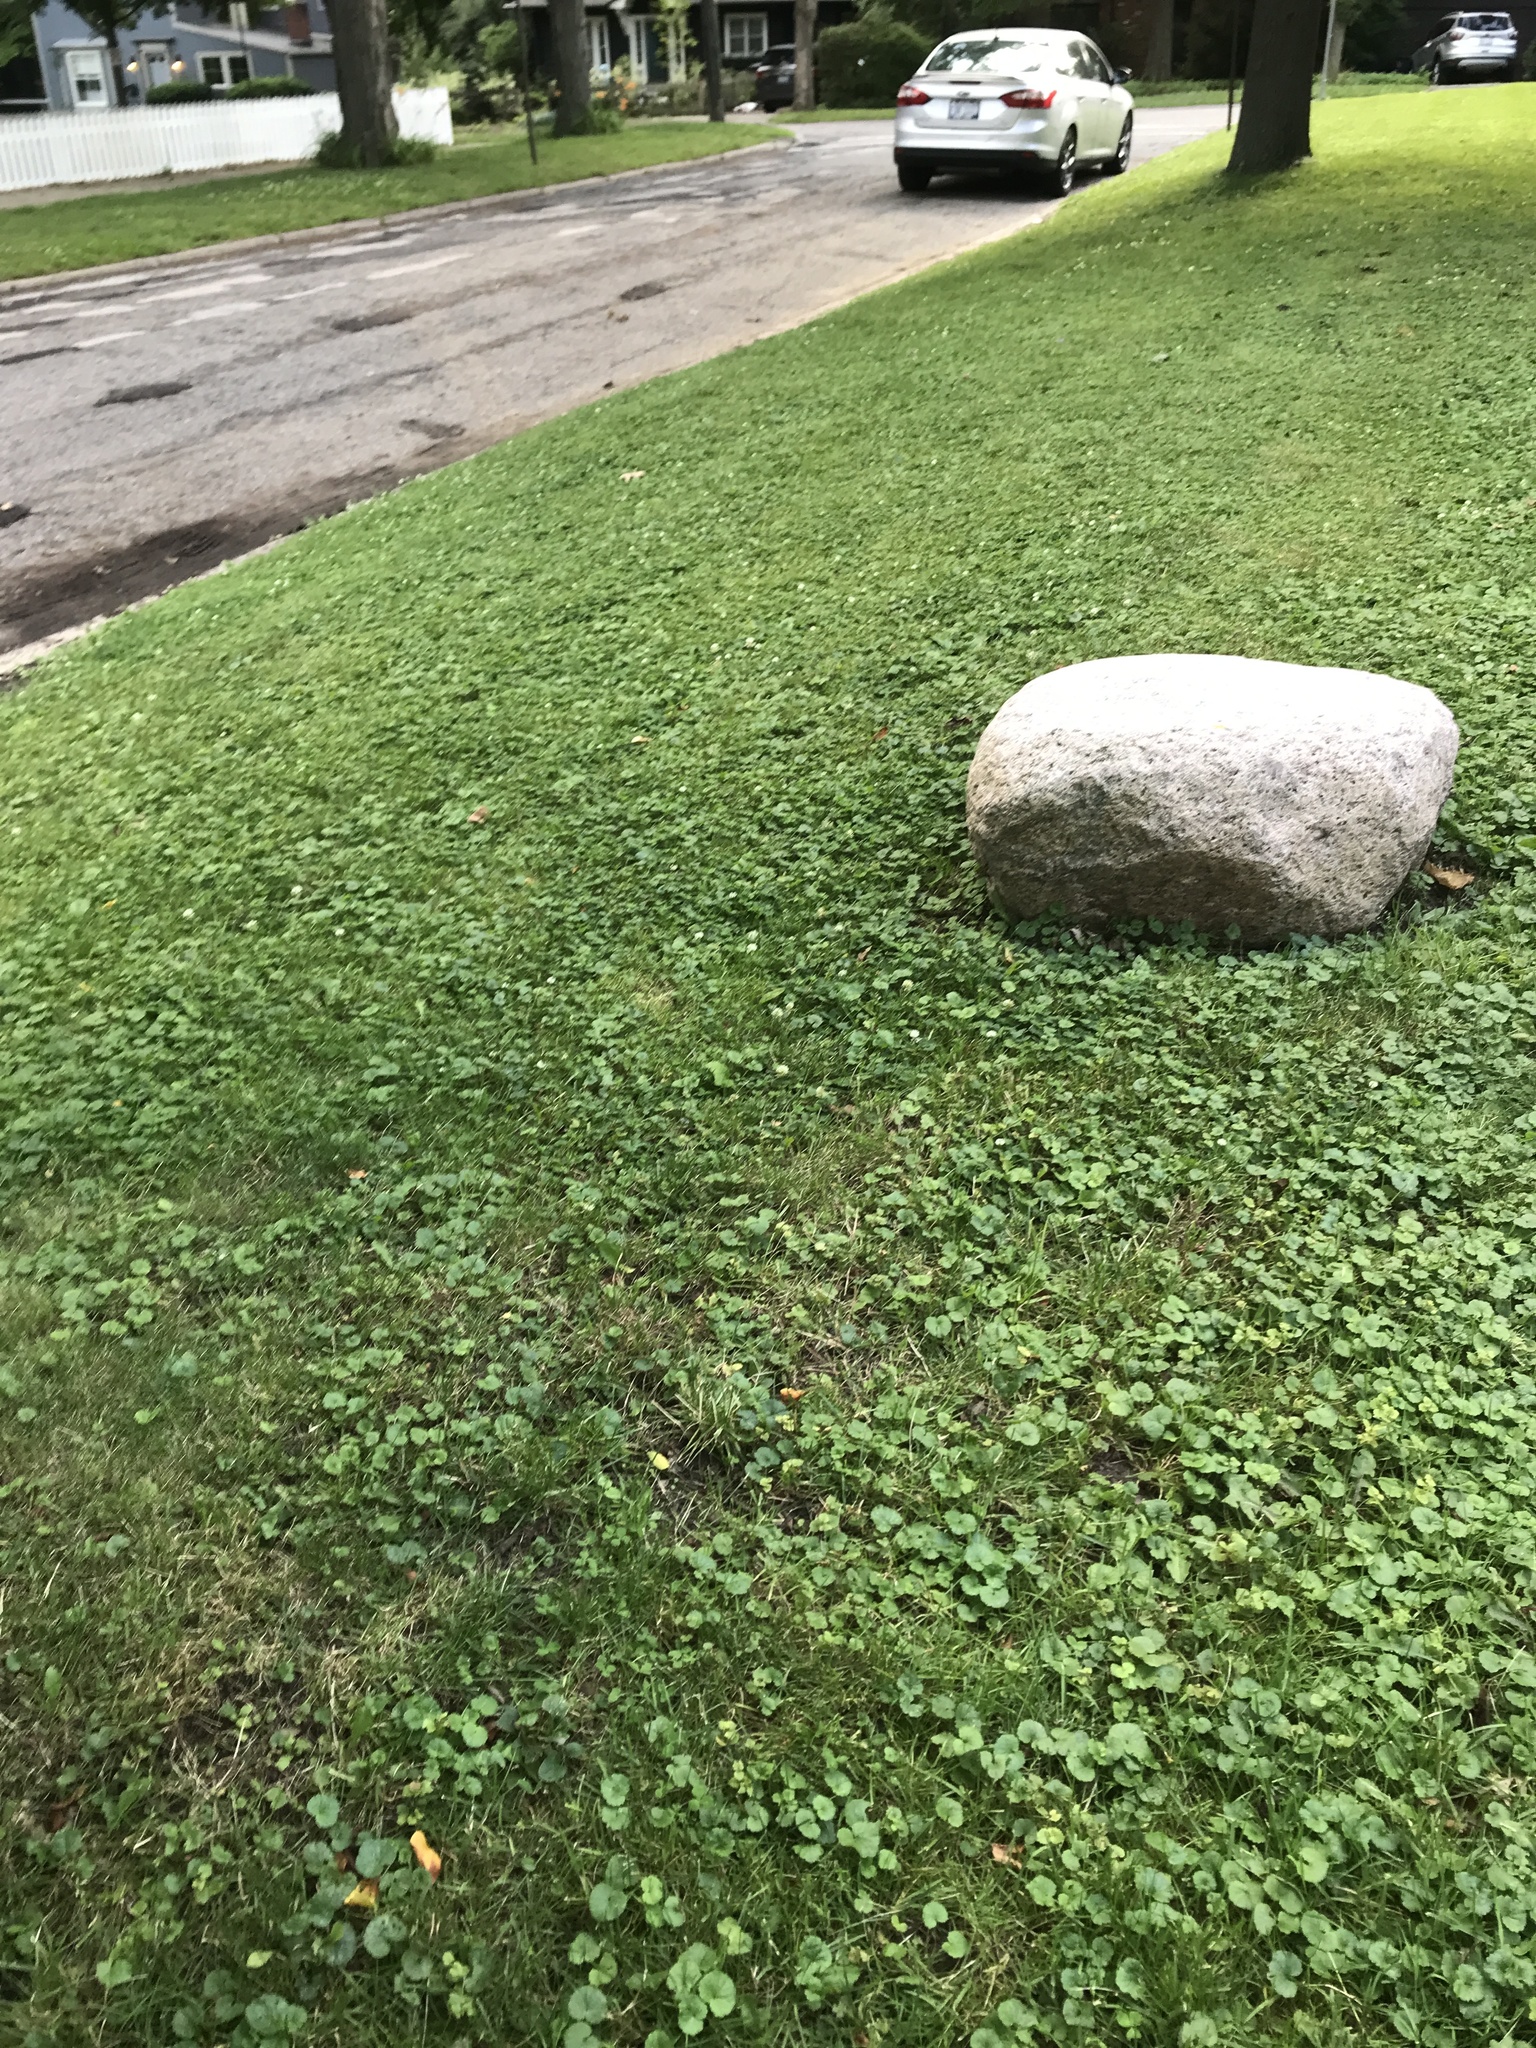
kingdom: Plantae
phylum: Tracheophyta
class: Magnoliopsida
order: Lamiales
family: Lamiaceae
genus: Glechoma
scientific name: Glechoma hederacea
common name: Ground ivy
